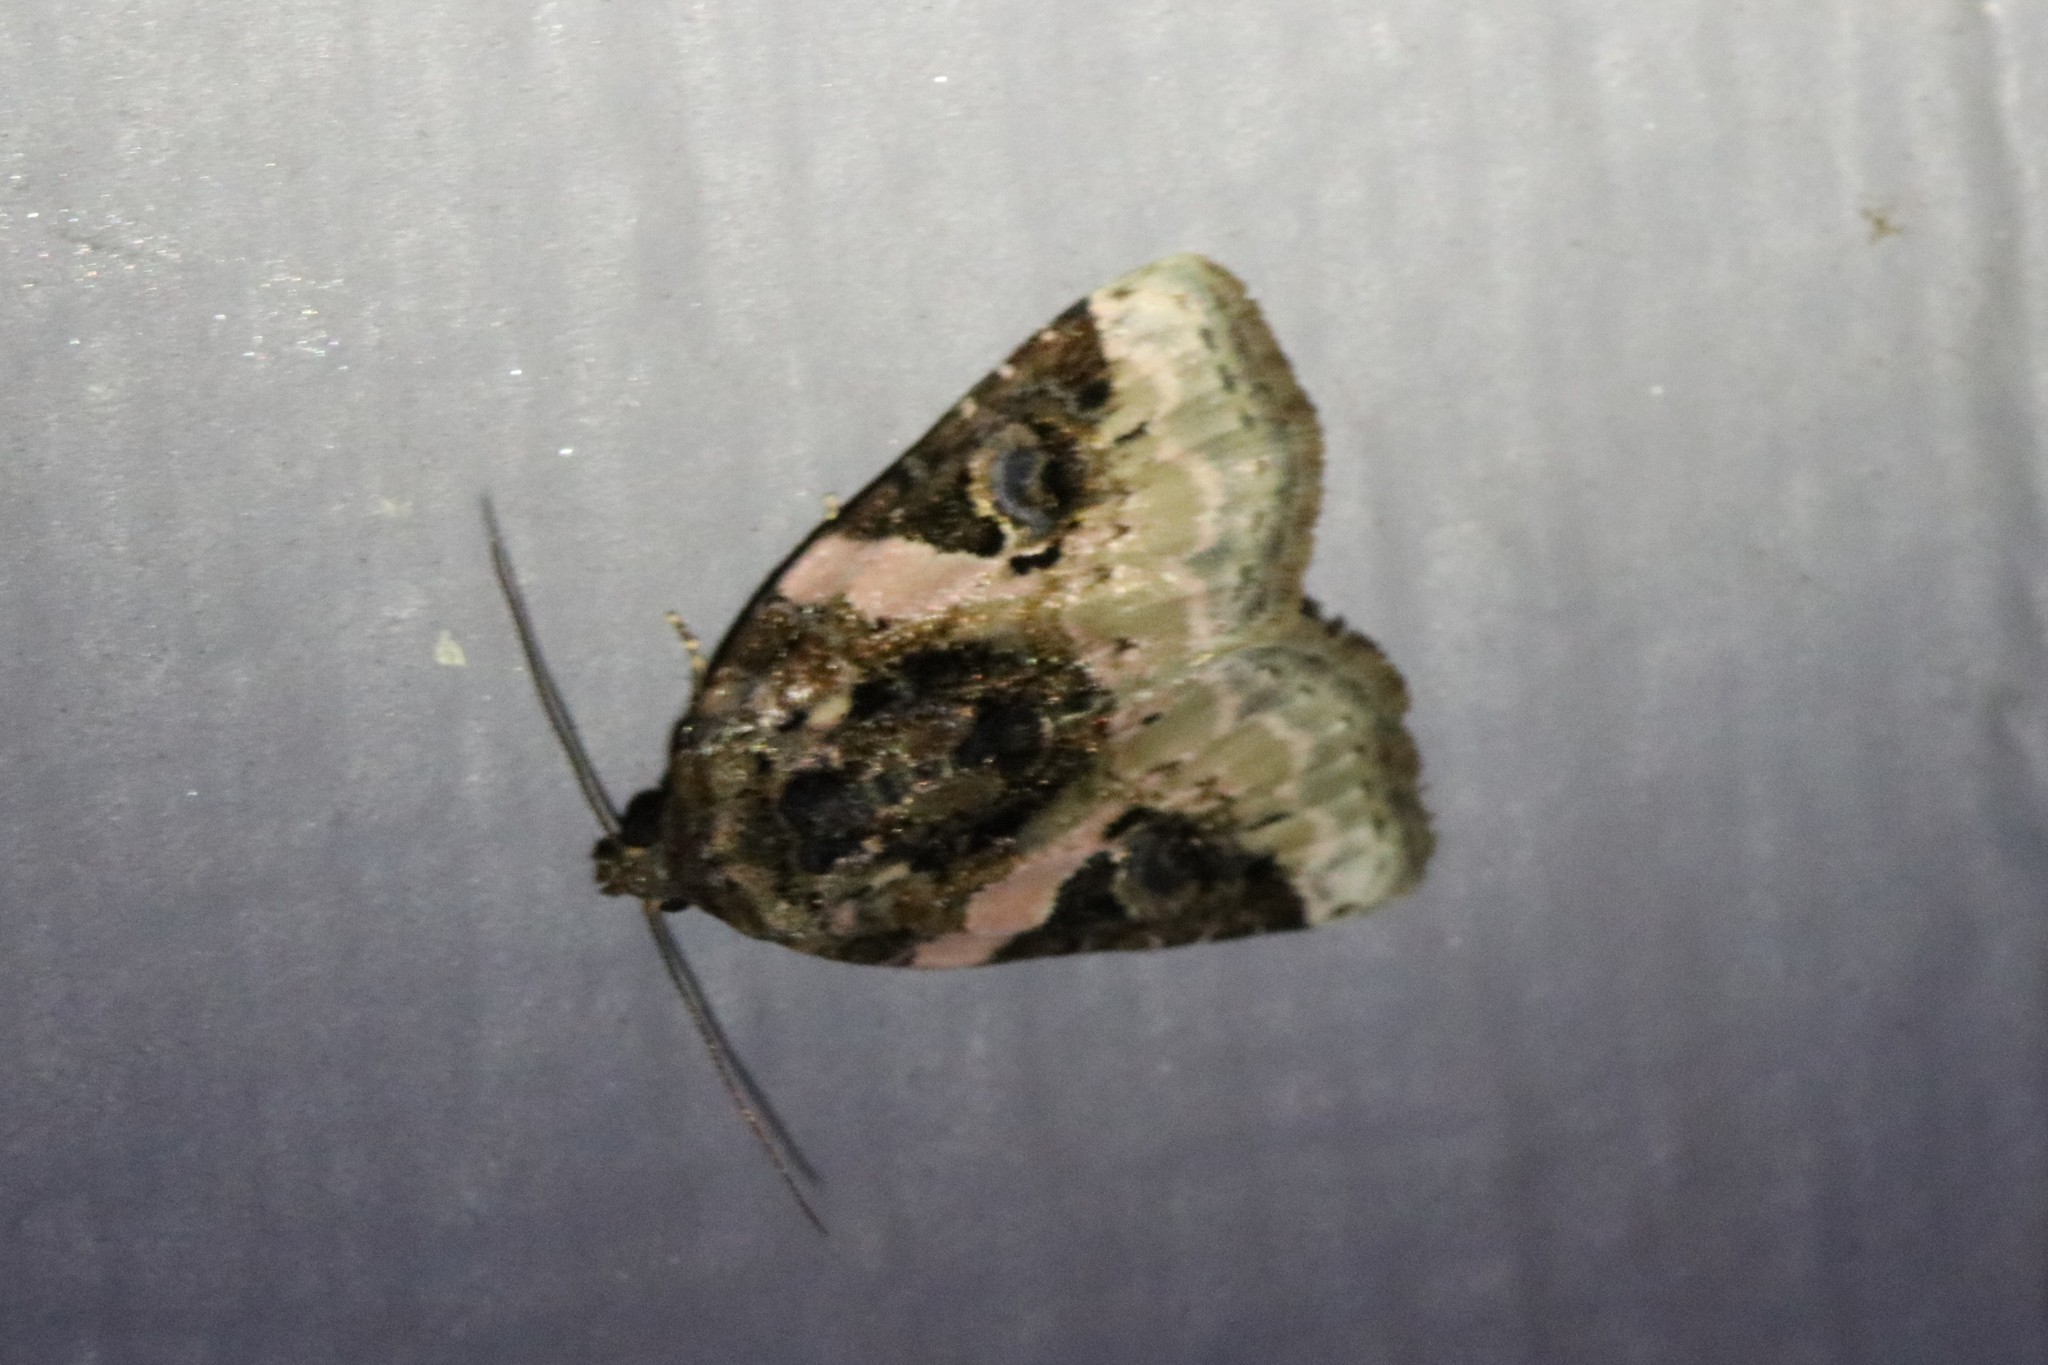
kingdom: Animalia
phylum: Arthropoda
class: Insecta
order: Lepidoptera
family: Noctuidae
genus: Pseudeustrotia
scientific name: Pseudeustrotia carneola
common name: Pink-barred lithacodia moth
